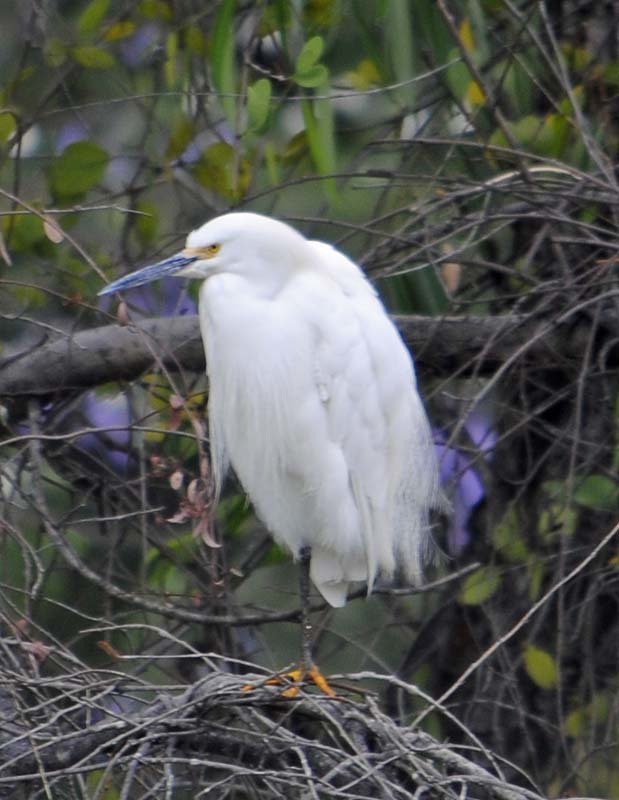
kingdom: Animalia
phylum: Chordata
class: Aves
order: Pelecaniformes
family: Ardeidae
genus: Egretta
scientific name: Egretta thula
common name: Snowy egret
